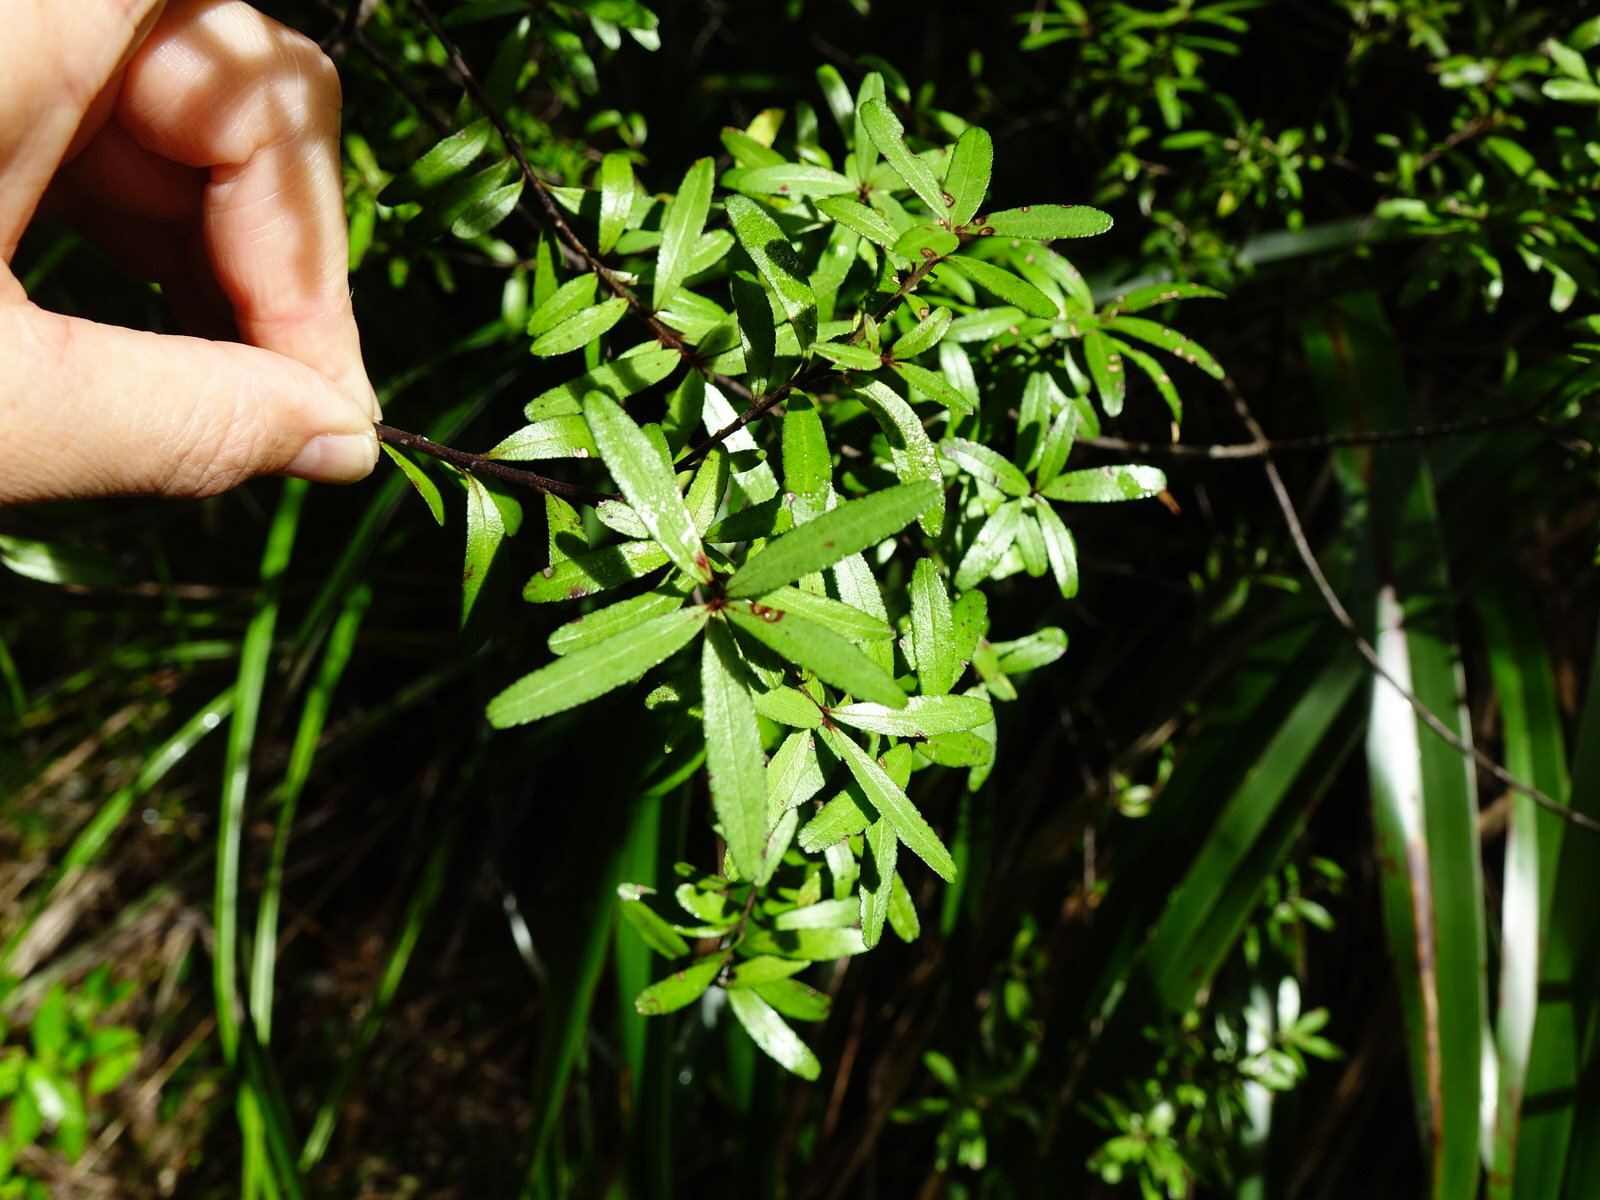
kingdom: Plantae
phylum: Tracheophyta
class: Magnoliopsida
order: Sapindales
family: Rutaceae
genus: Leionema
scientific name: Leionema nudum
